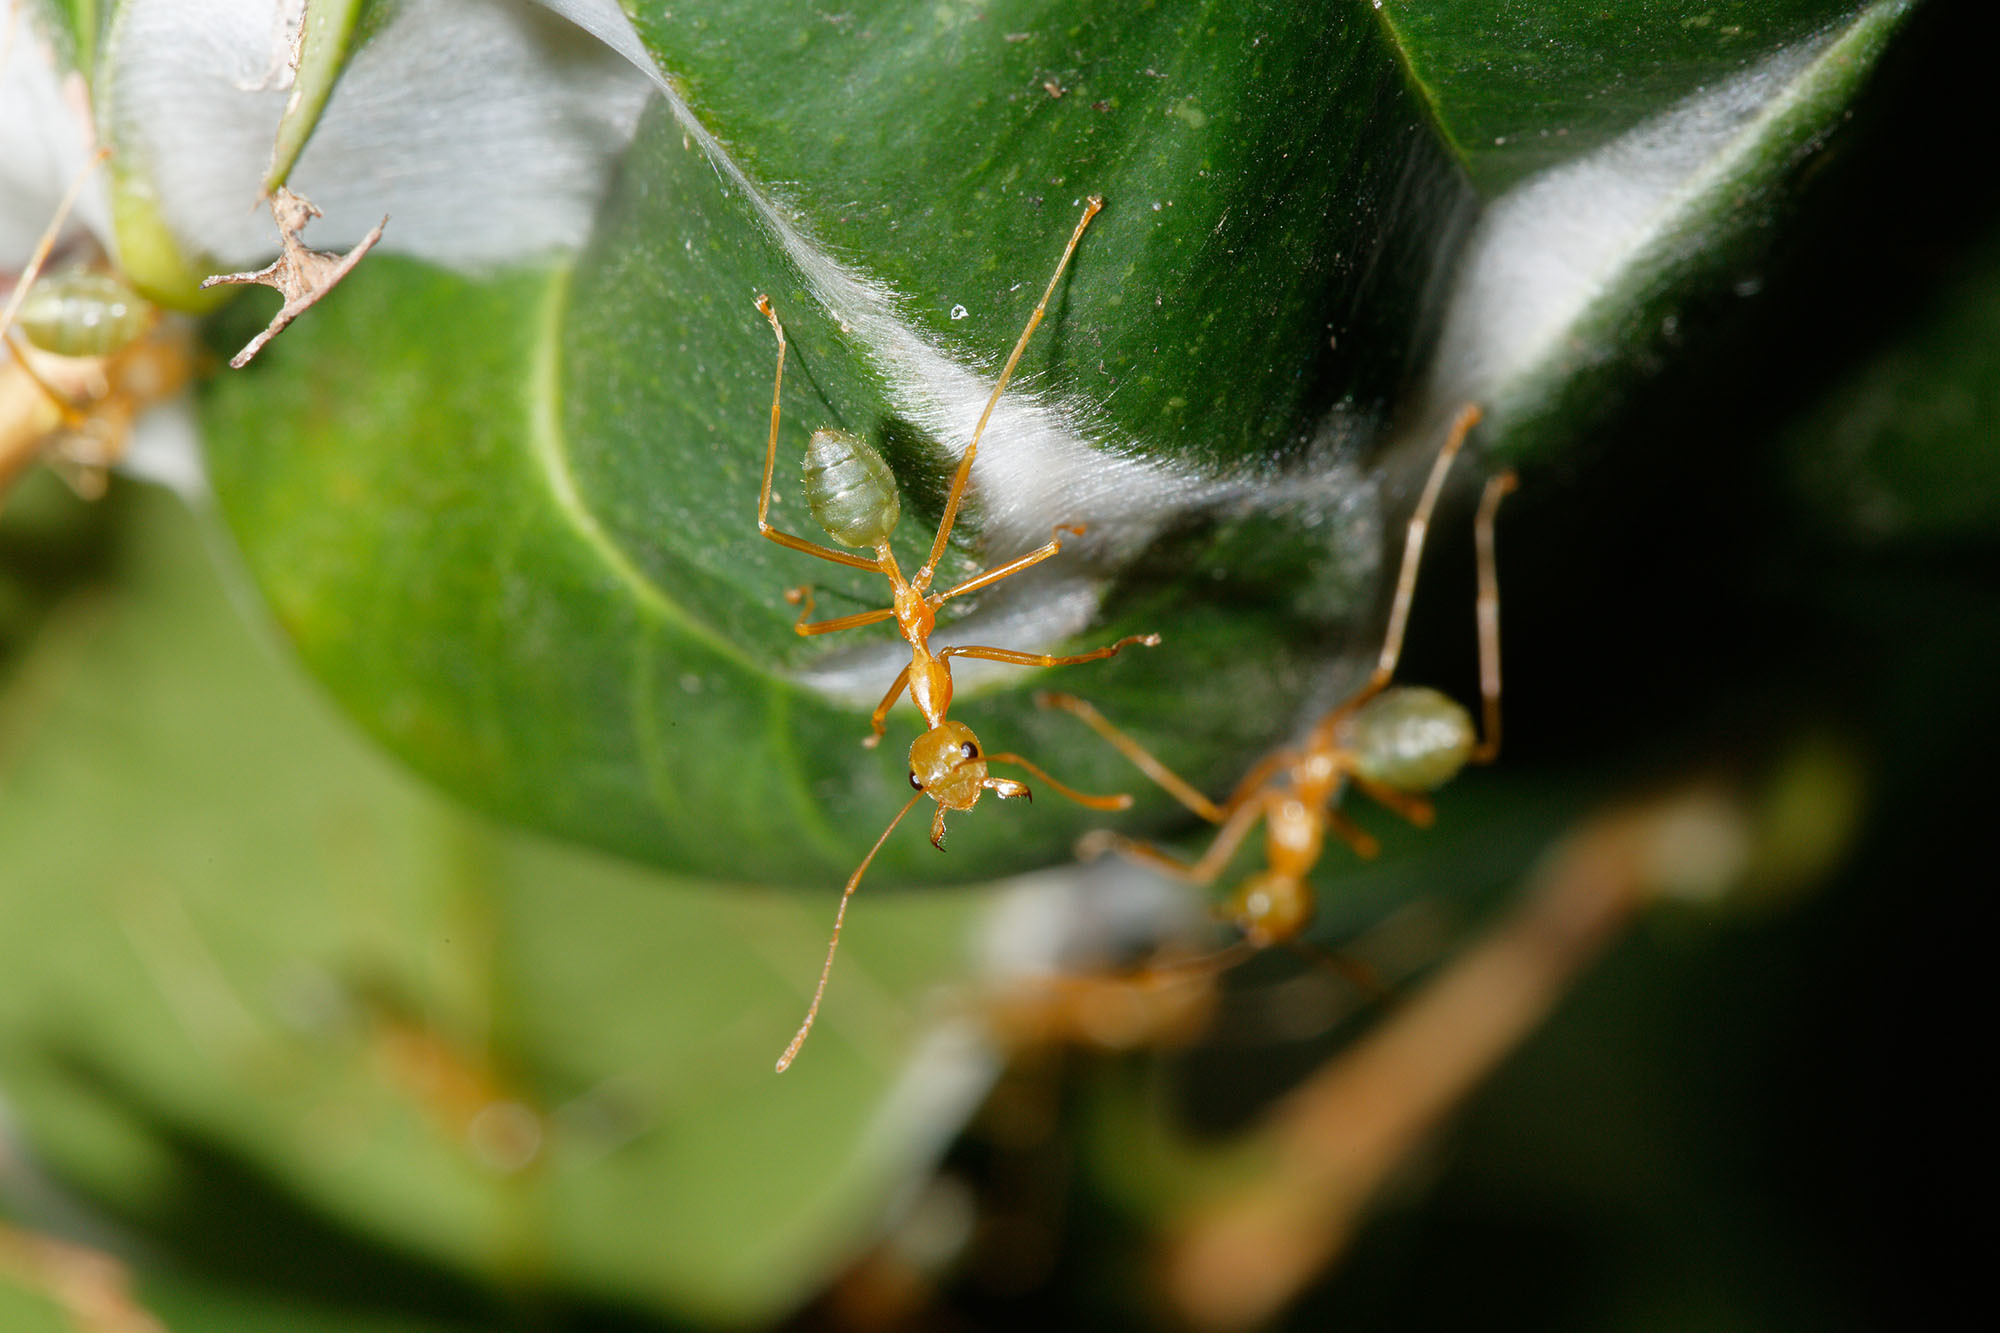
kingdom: Animalia
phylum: Arthropoda
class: Insecta
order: Hymenoptera
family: Formicidae
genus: Oecophylla
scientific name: Oecophylla smaragdina
